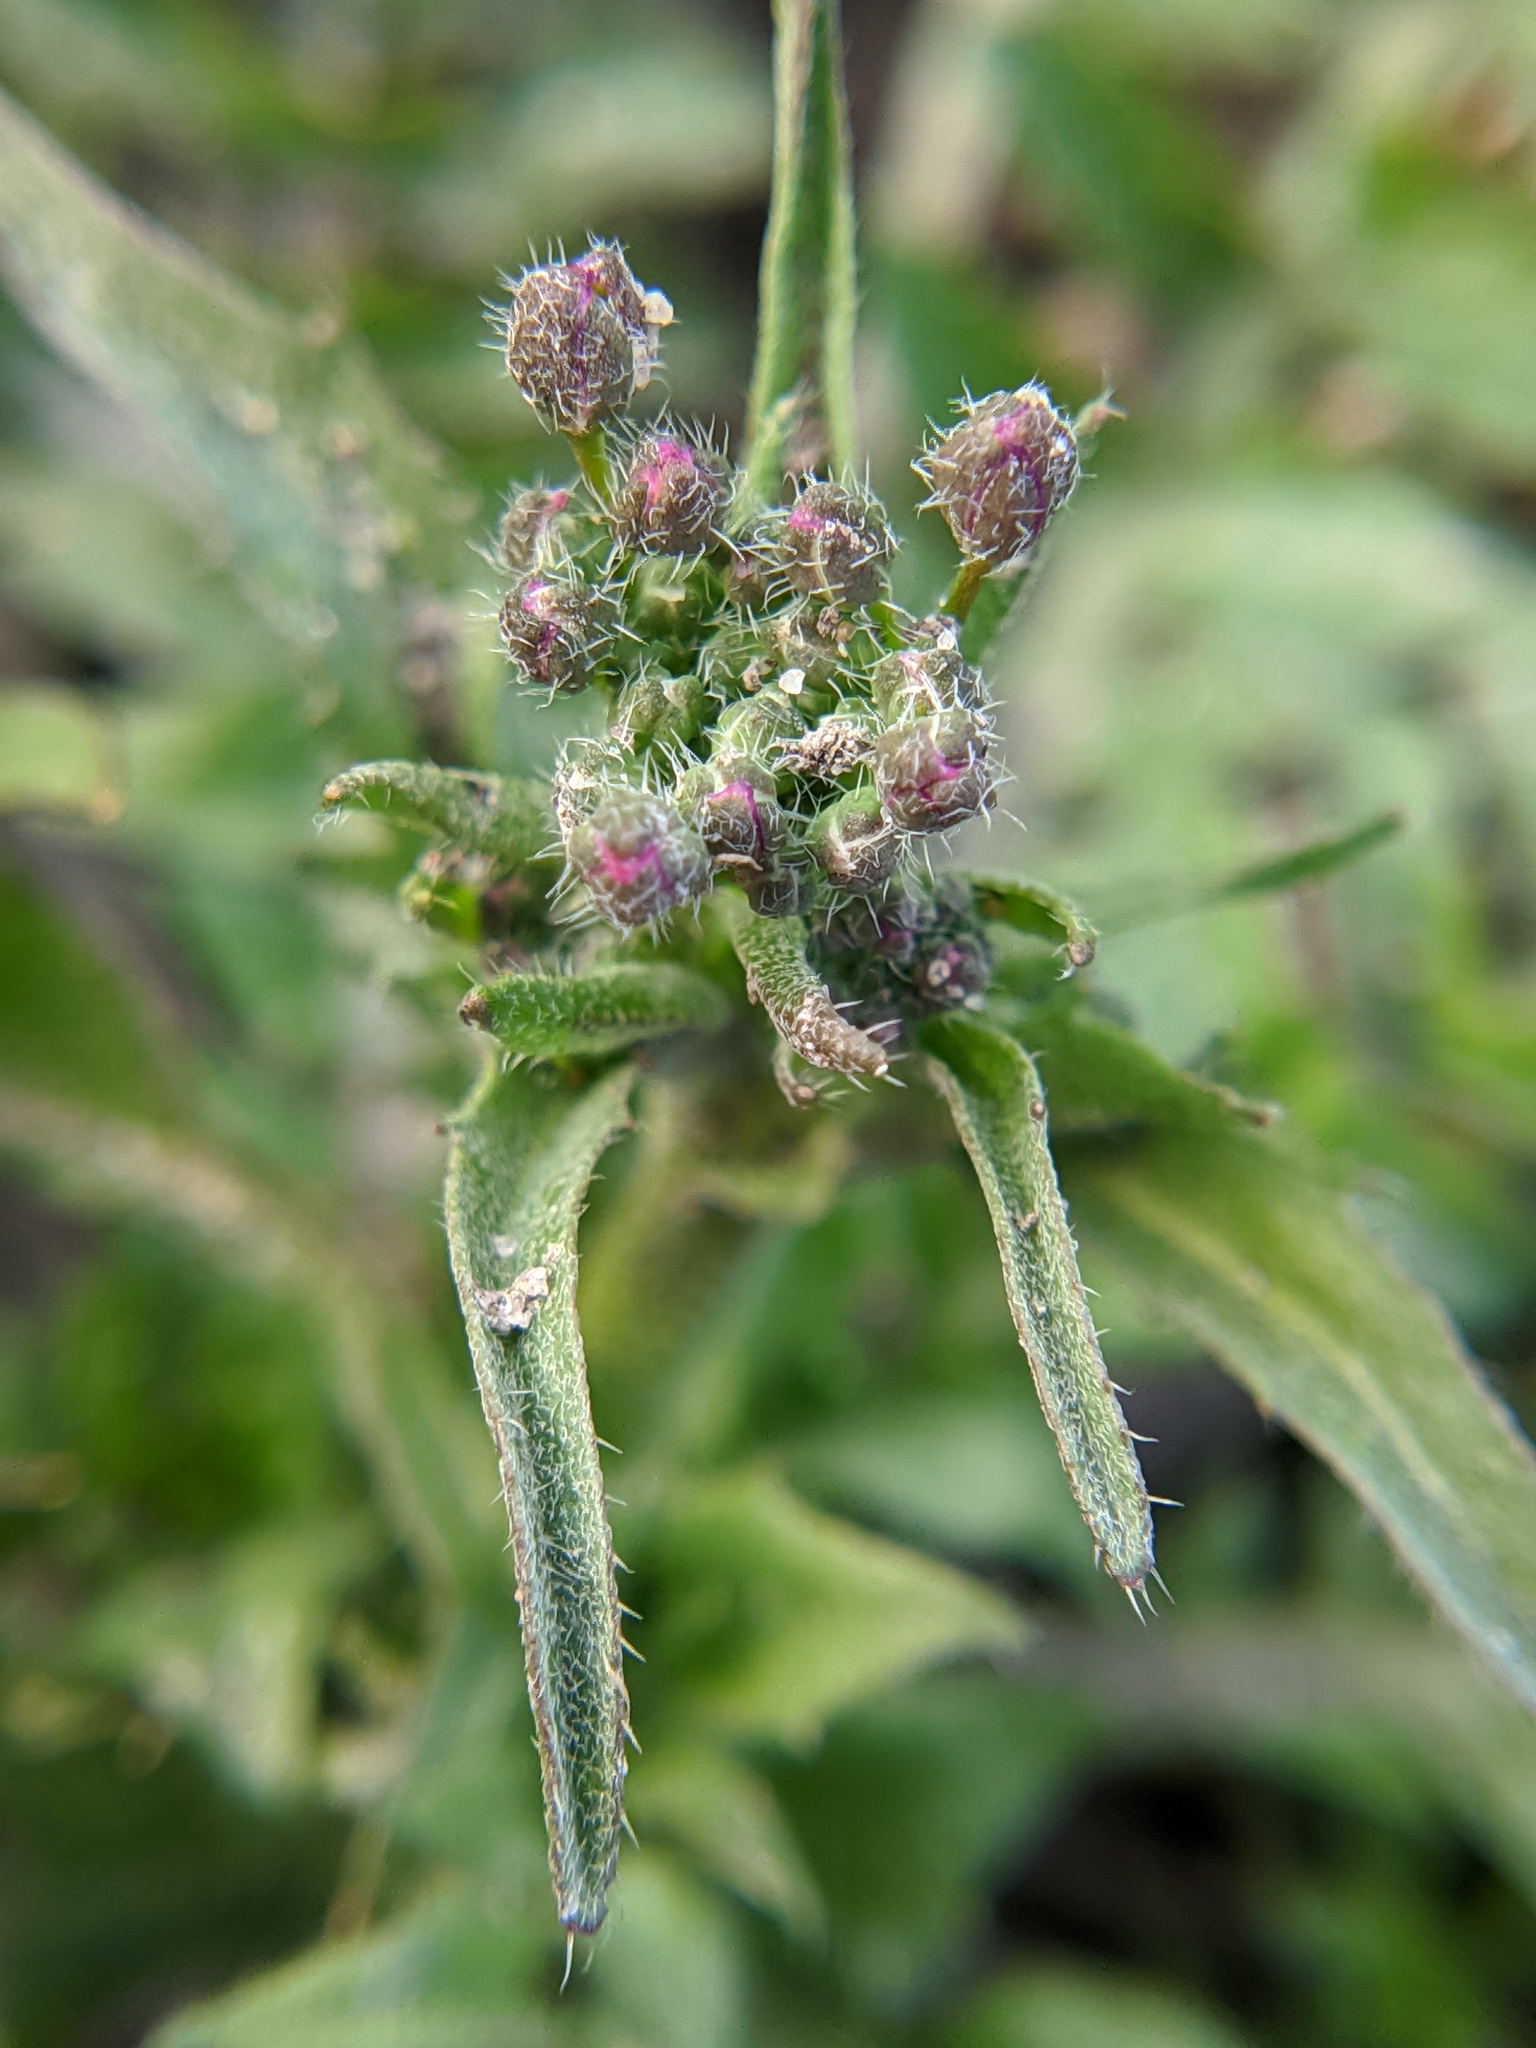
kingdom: Plantae
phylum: Tracheophyta
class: Magnoliopsida
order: Brassicales
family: Brassicaceae
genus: Capsella
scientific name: Capsella bursa-pastoris
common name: Shepherd's purse
